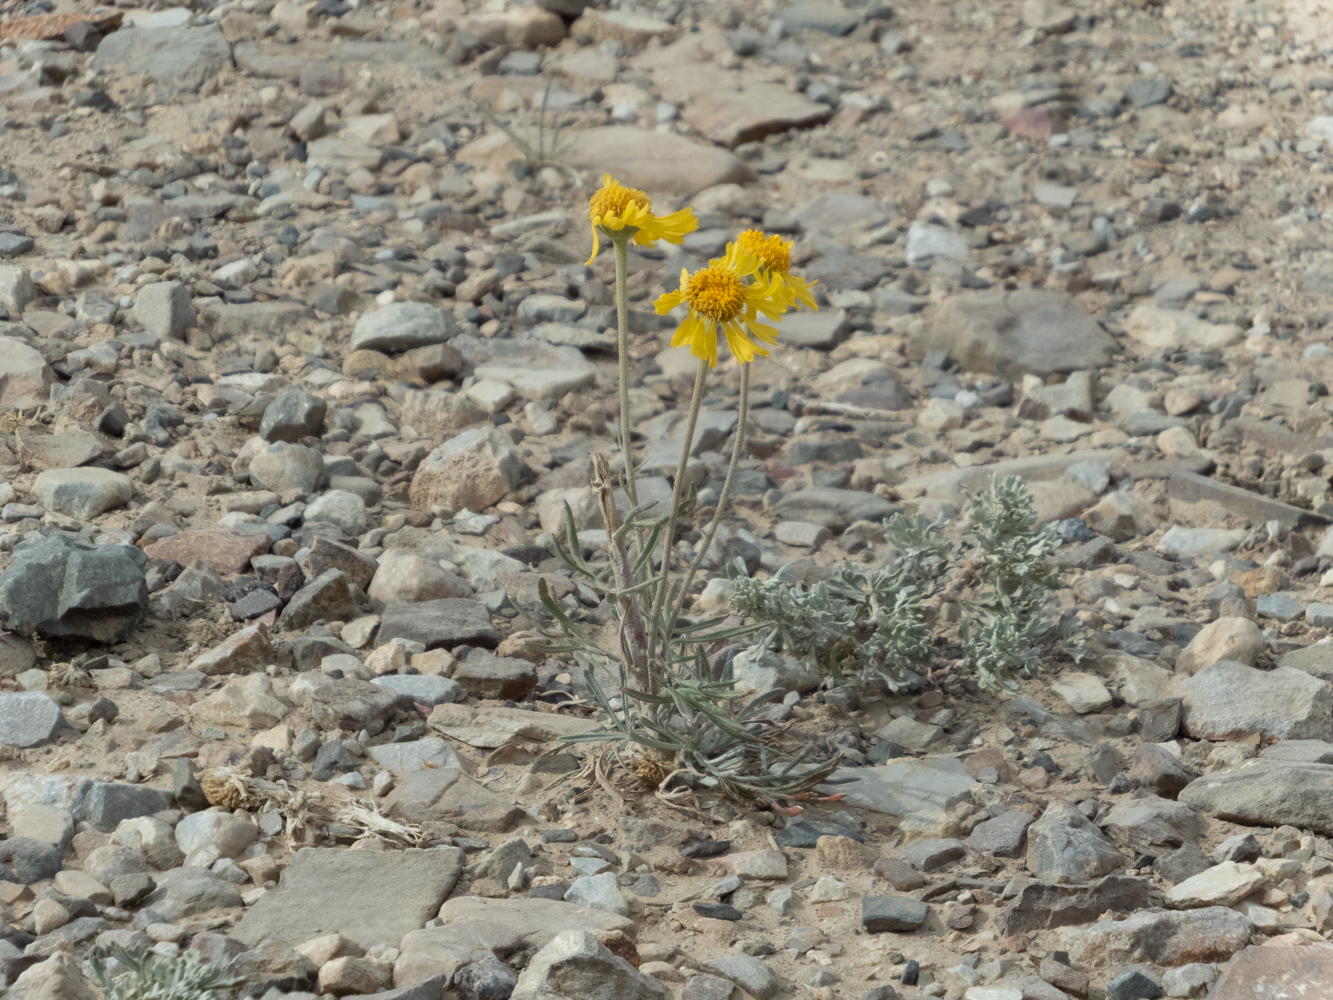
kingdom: Plantae
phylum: Tracheophyta
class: Magnoliopsida
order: Asterales
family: Asteraceae
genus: Hymenoxys
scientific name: Hymenoxys cooperi
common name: Cooper's bitterweed
